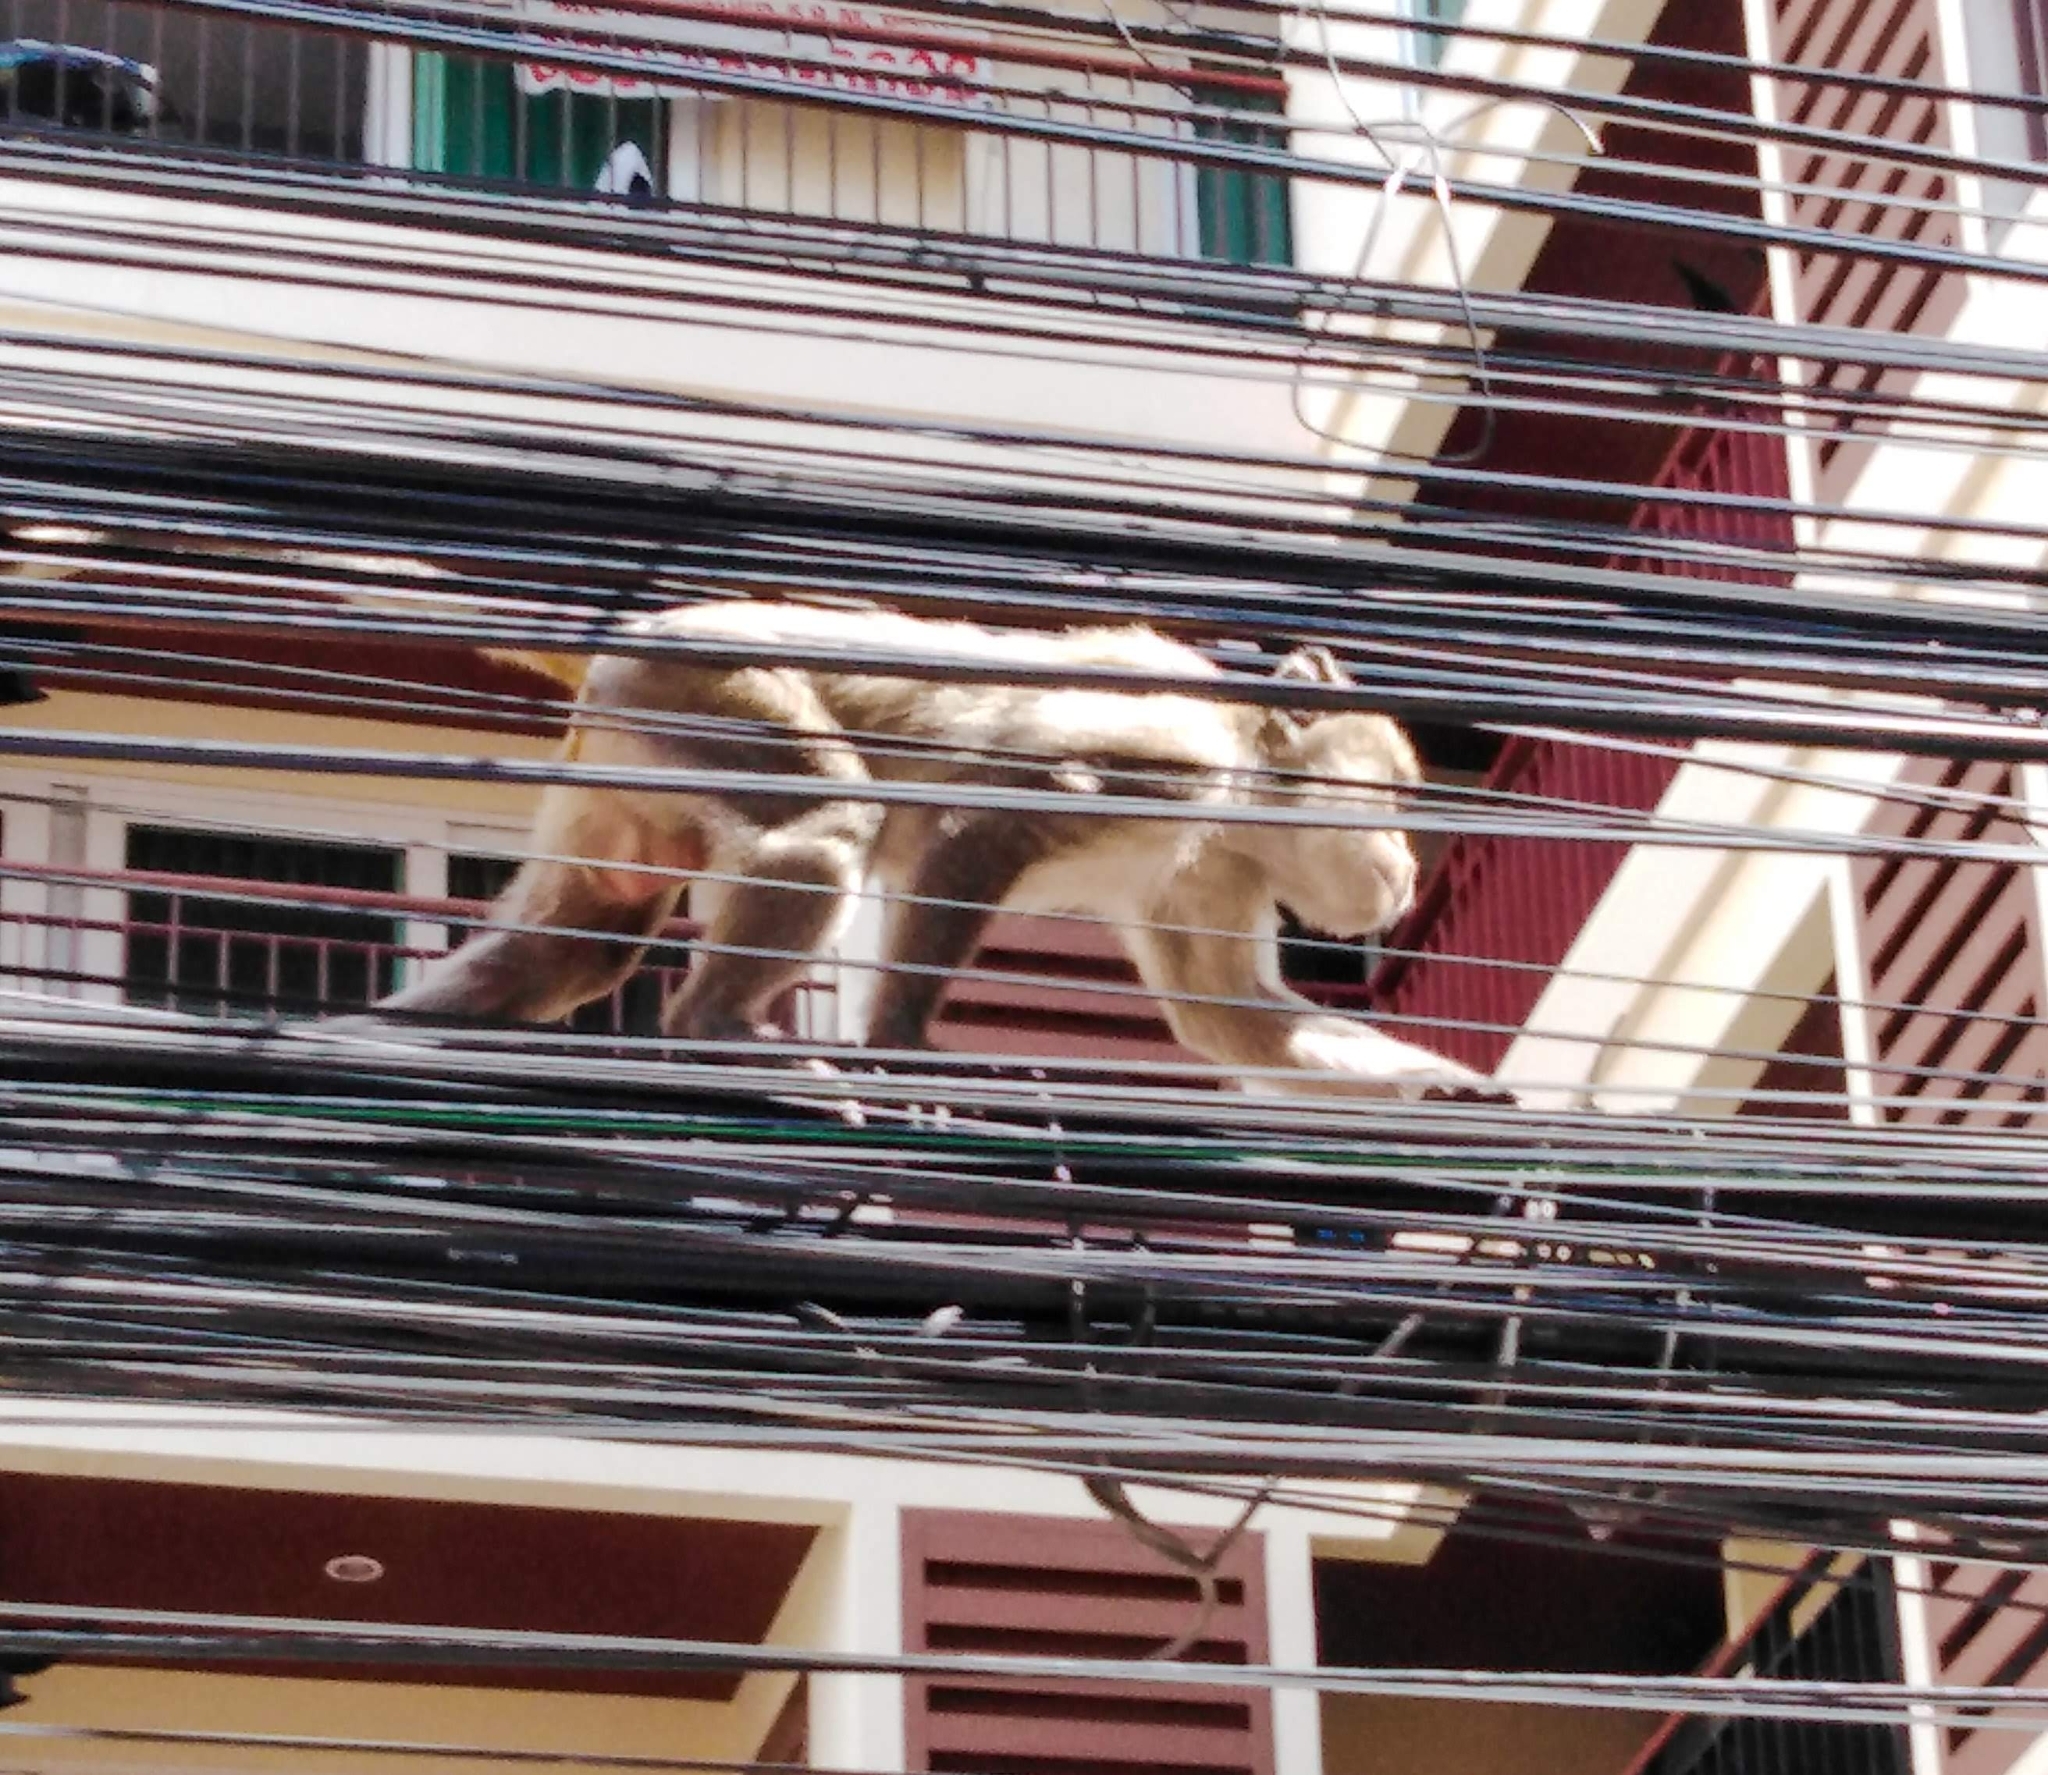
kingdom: Animalia
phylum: Chordata
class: Mammalia
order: Primates
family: Cercopithecidae
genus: Macaca
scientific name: Macaca fascicularis
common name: Crab-eating macaque
